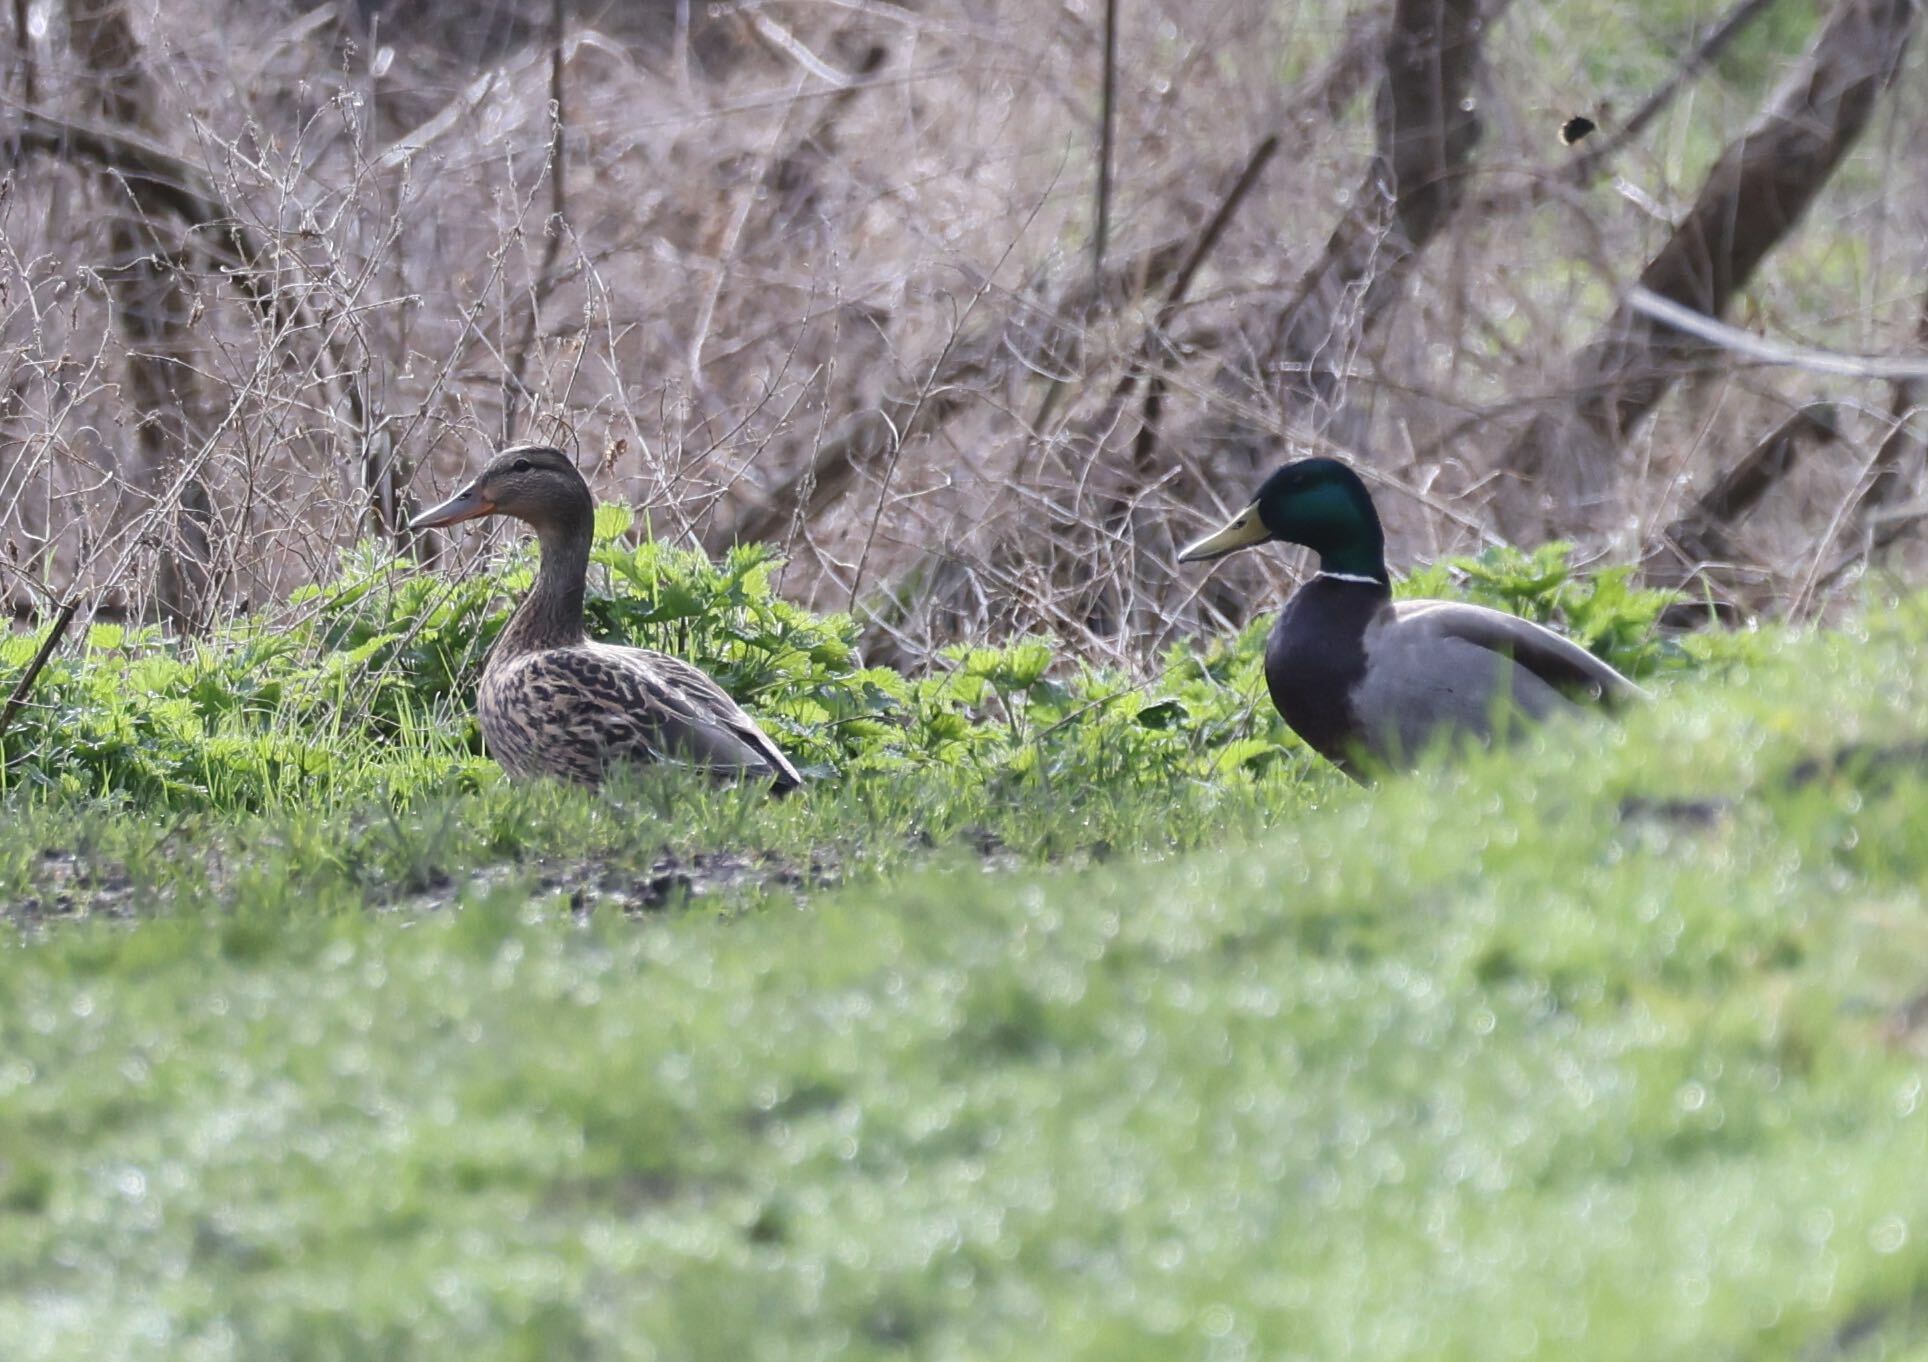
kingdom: Animalia
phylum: Chordata
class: Aves
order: Anseriformes
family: Anatidae
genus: Anas
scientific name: Anas platyrhynchos
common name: Mallard
